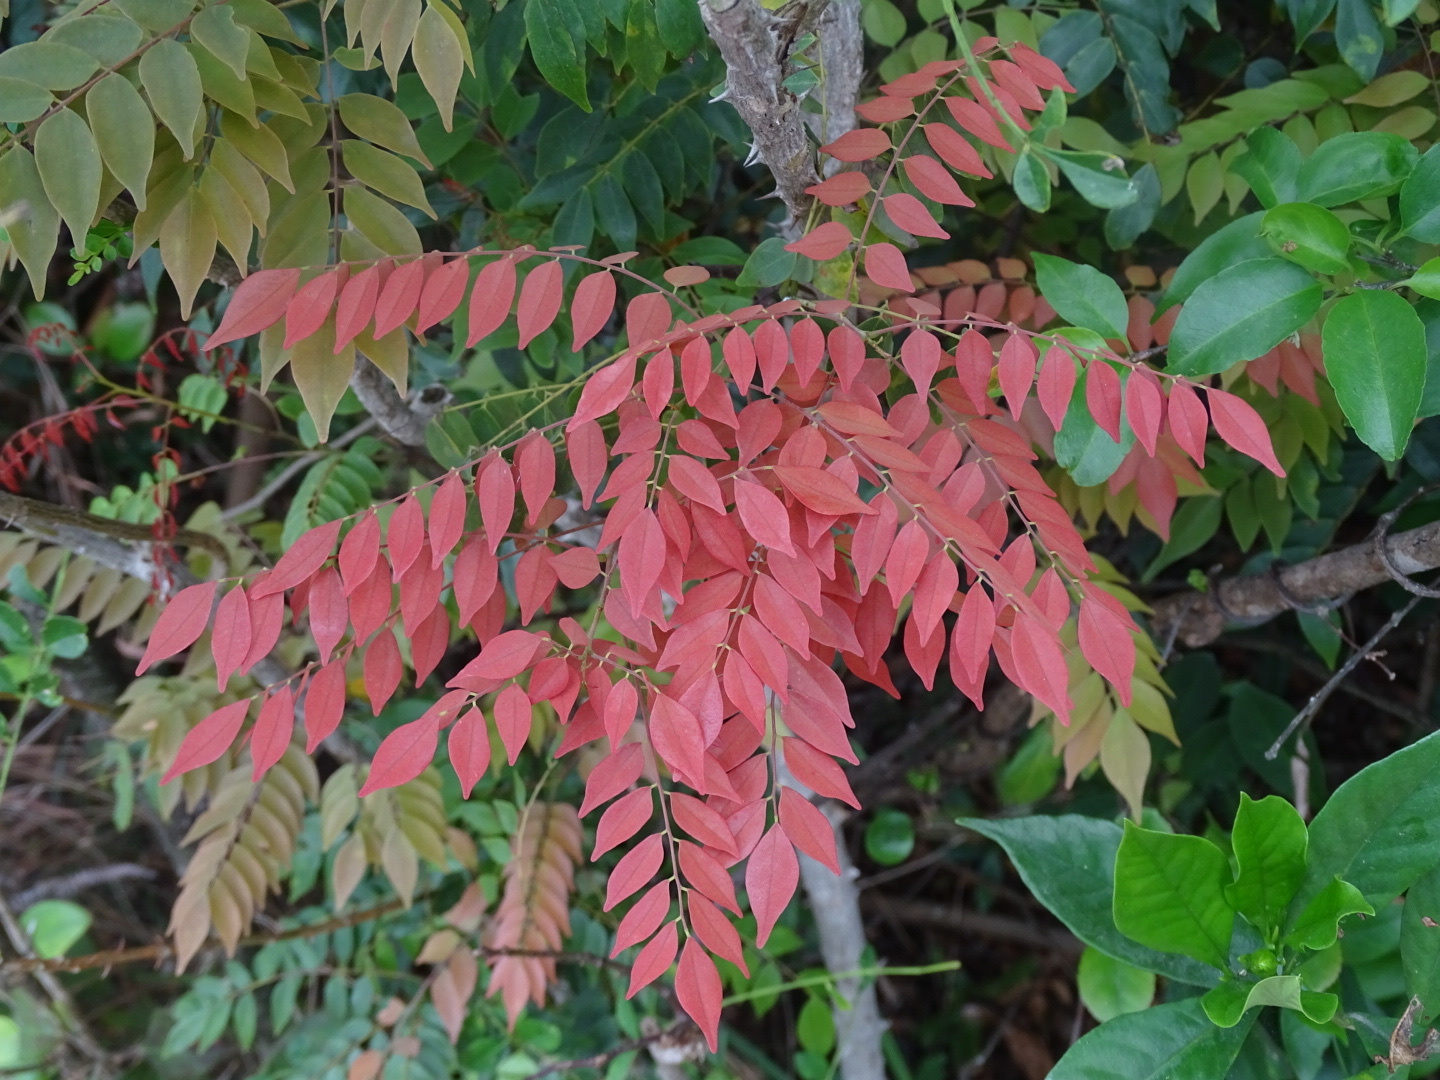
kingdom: Plantae
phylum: Tracheophyta
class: Magnoliopsida
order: Oxalidales
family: Connaraceae
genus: Rourea
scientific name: Rourea microphylla
